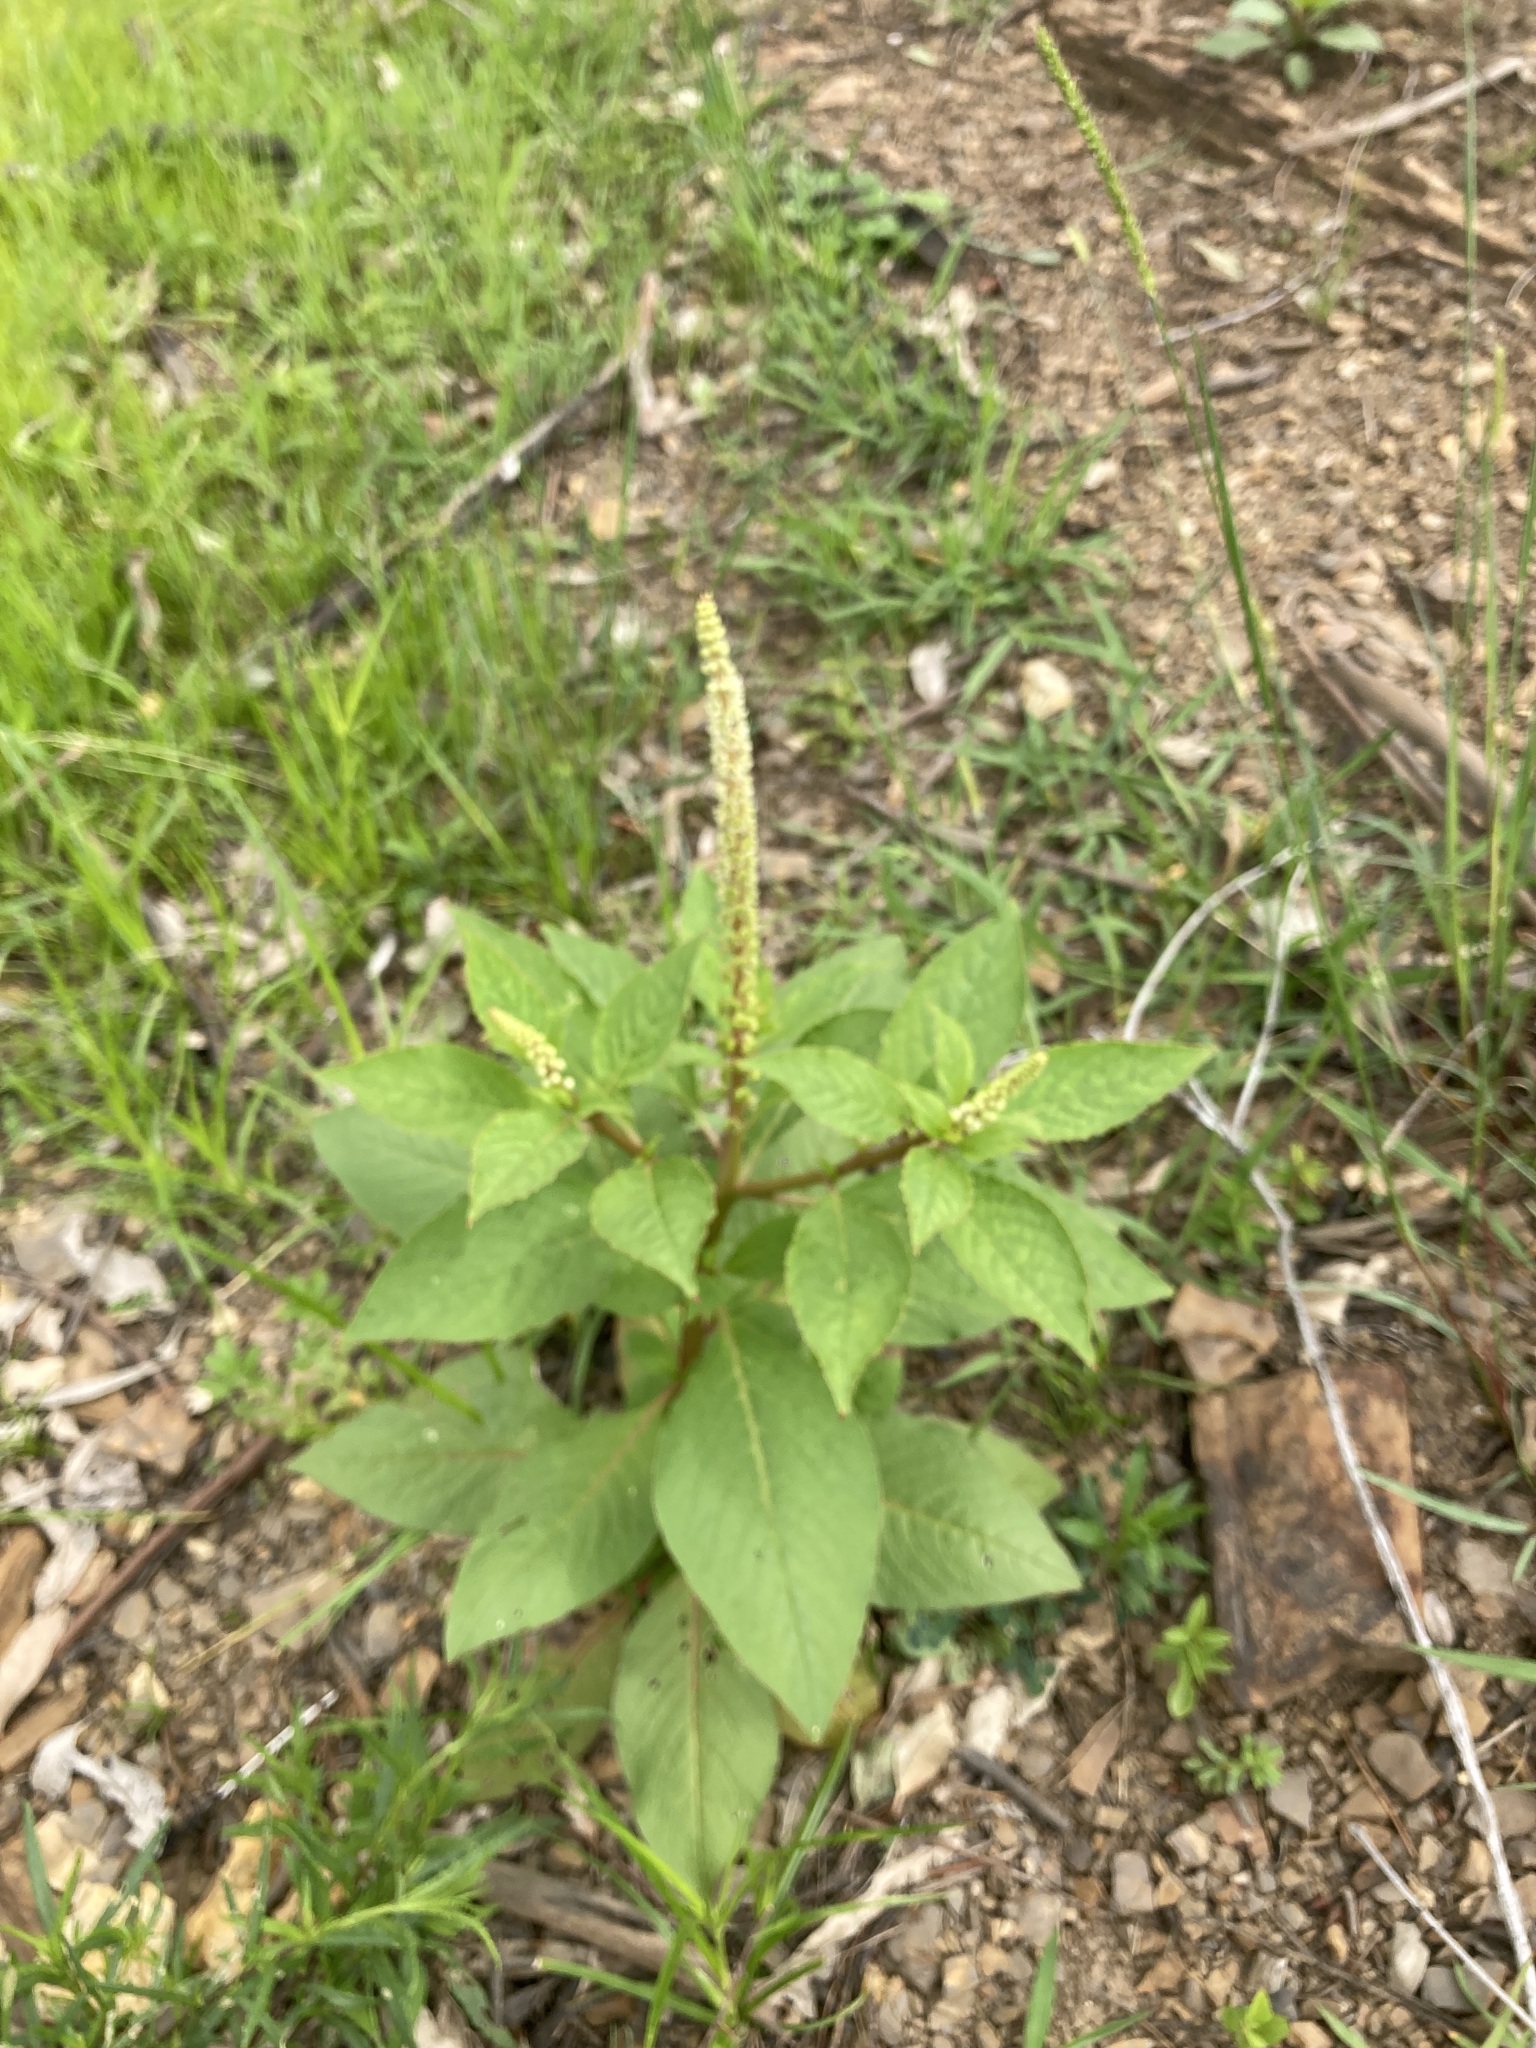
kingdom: Plantae
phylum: Tracheophyta
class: Magnoliopsida
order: Caryophyllales
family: Phytolaccaceae
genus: Phytolacca
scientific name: Phytolacca icosandra
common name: Button pokeweed
